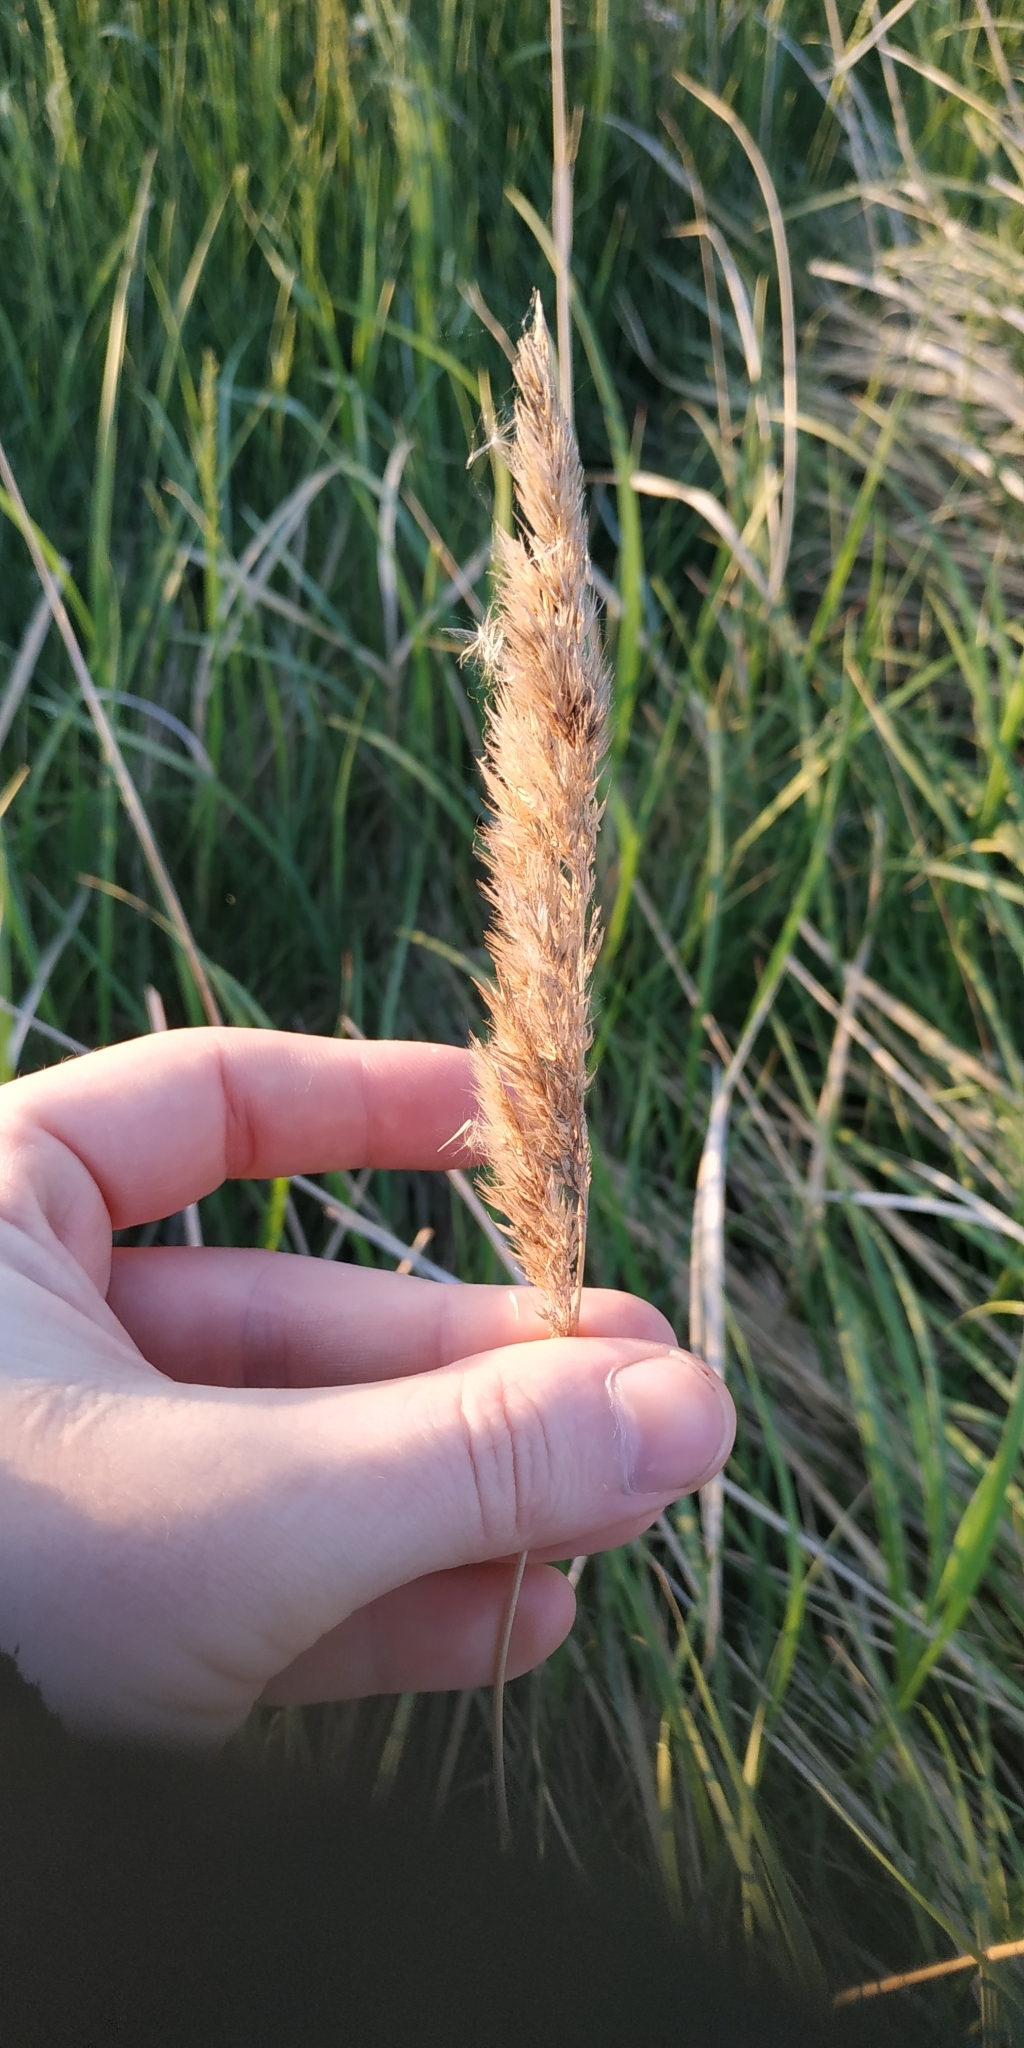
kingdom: Plantae
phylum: Tracheophyta
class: Liliopsida
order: Poales
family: Poaceae
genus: Calamagrostis
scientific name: Calamagrostis epigejos
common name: Wood small-reed
